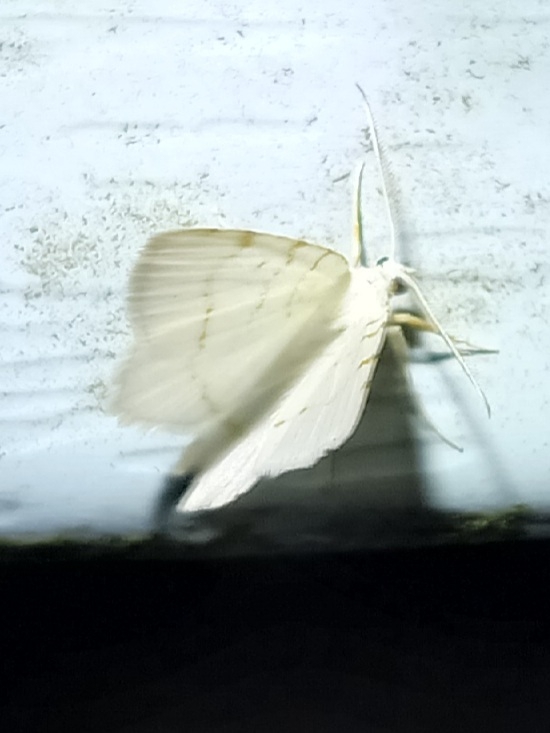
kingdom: Animalia
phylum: Arthropoda
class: Insecta
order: Lepidoptera
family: Geometridae
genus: Macaria
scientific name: Macaria pustularia
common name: Lesser maple spanworm moth
